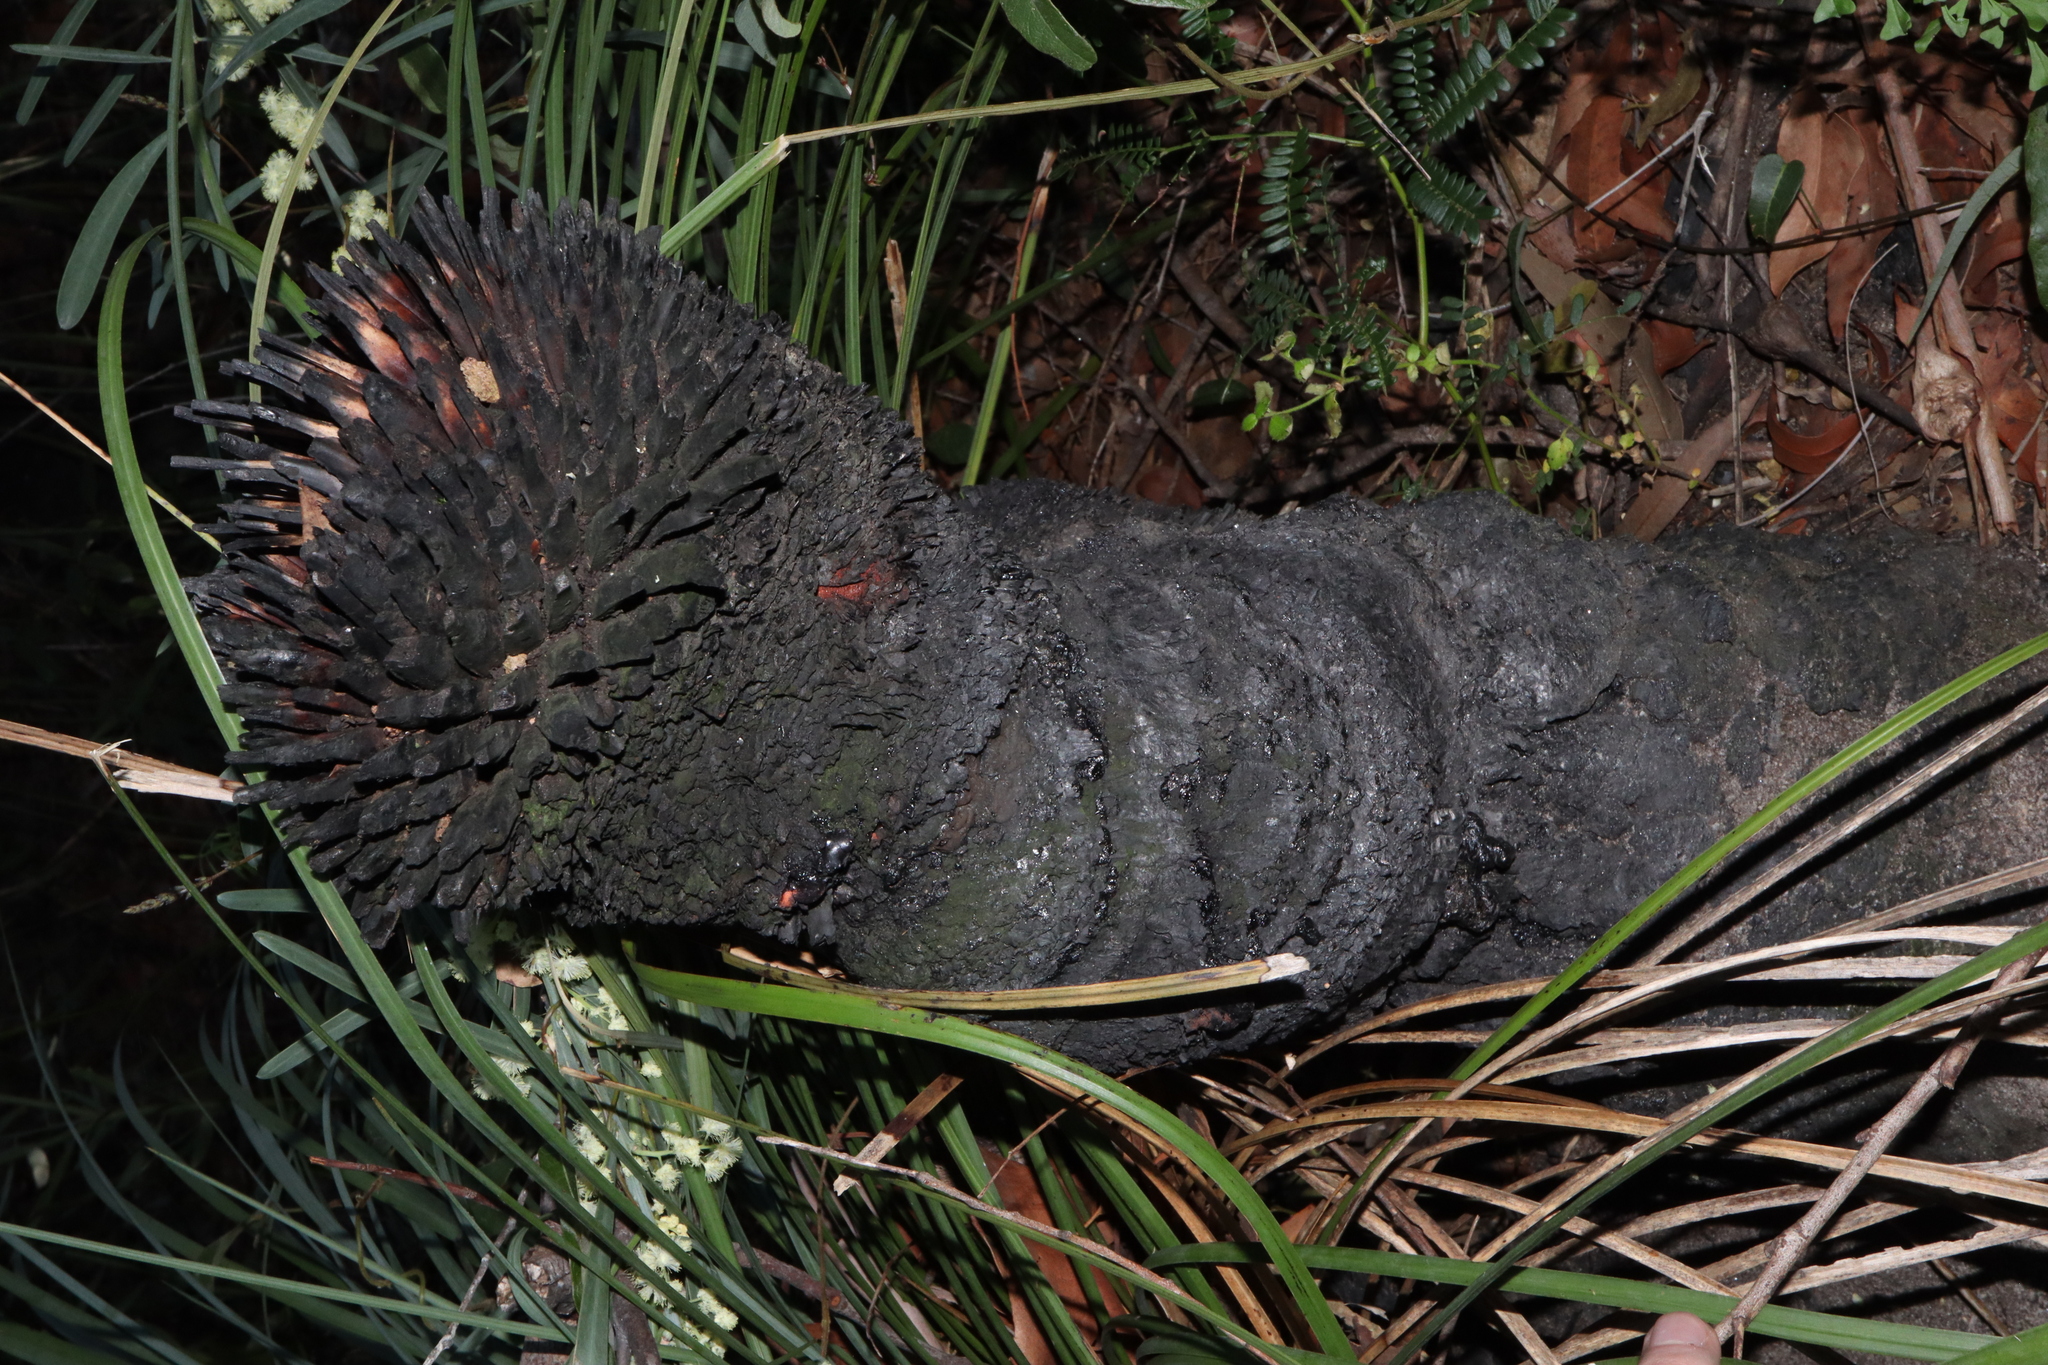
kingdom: Plantae
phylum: Tracheophyta
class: Liliopsida
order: Asparagales
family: Asphodelaceae
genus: Xanthorrhoea
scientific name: Xanthorrhoea arborea
